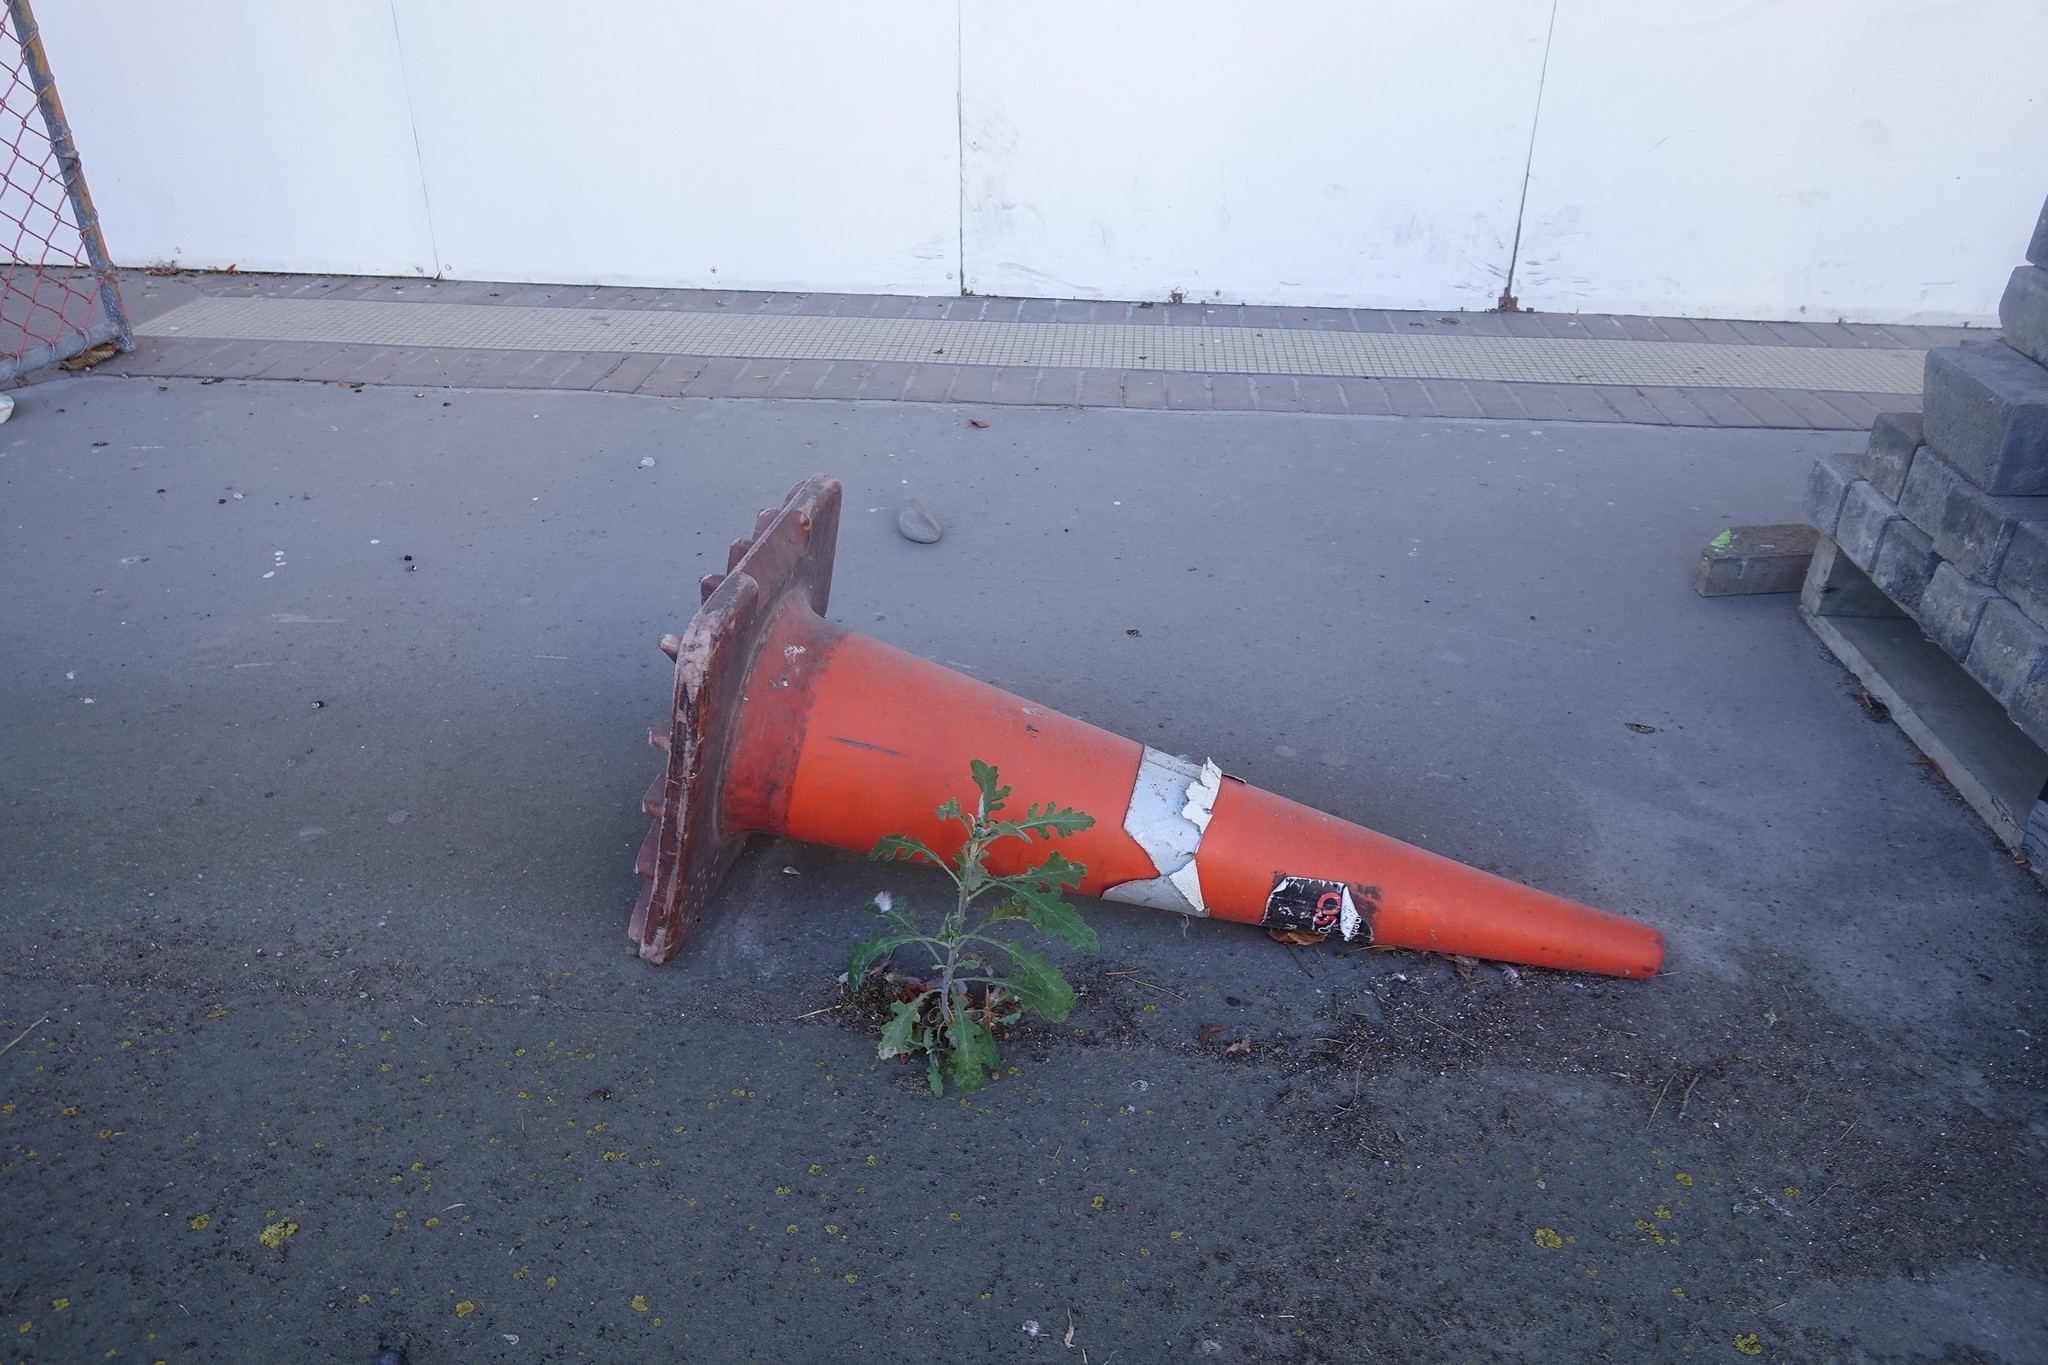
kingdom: Plantae
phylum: Tracheophyta
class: Magnoliopsida
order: Asterales
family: Asteraceae
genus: Senecio
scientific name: Senecio glomeratus
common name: Cutleaf burnweed
